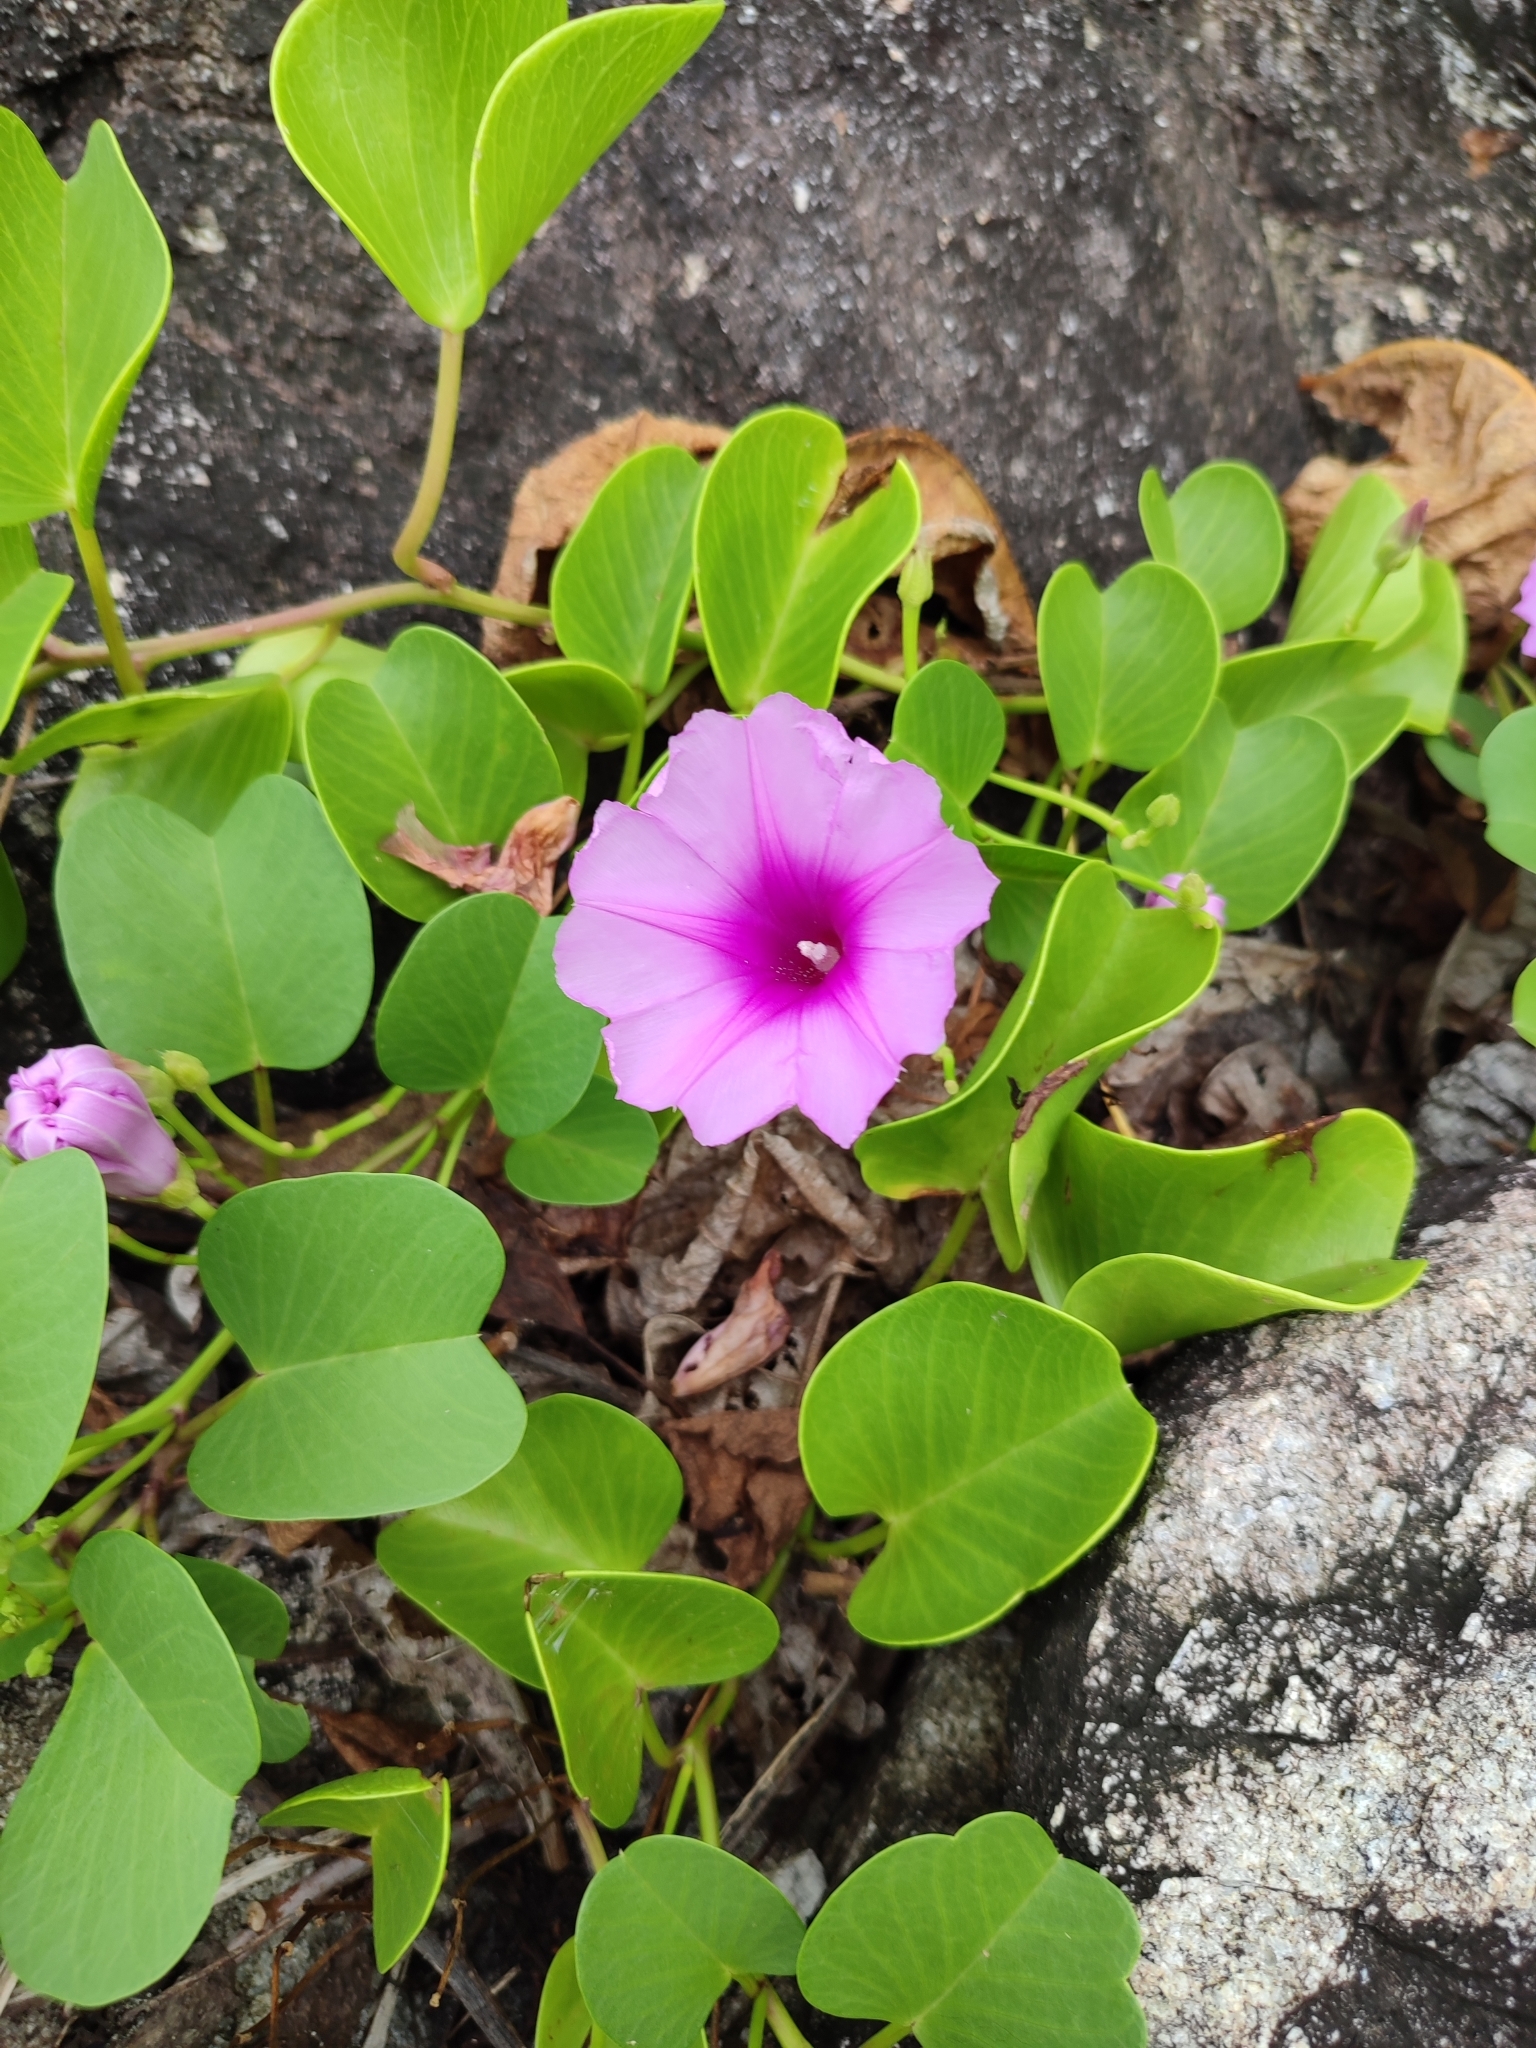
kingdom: Plantae
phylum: Tracheophyta
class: Magnoliopsida
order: Solanales
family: Convolvulaceae
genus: Ipomoea
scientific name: Ipomoea pes-caprae
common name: Beach morning glory
